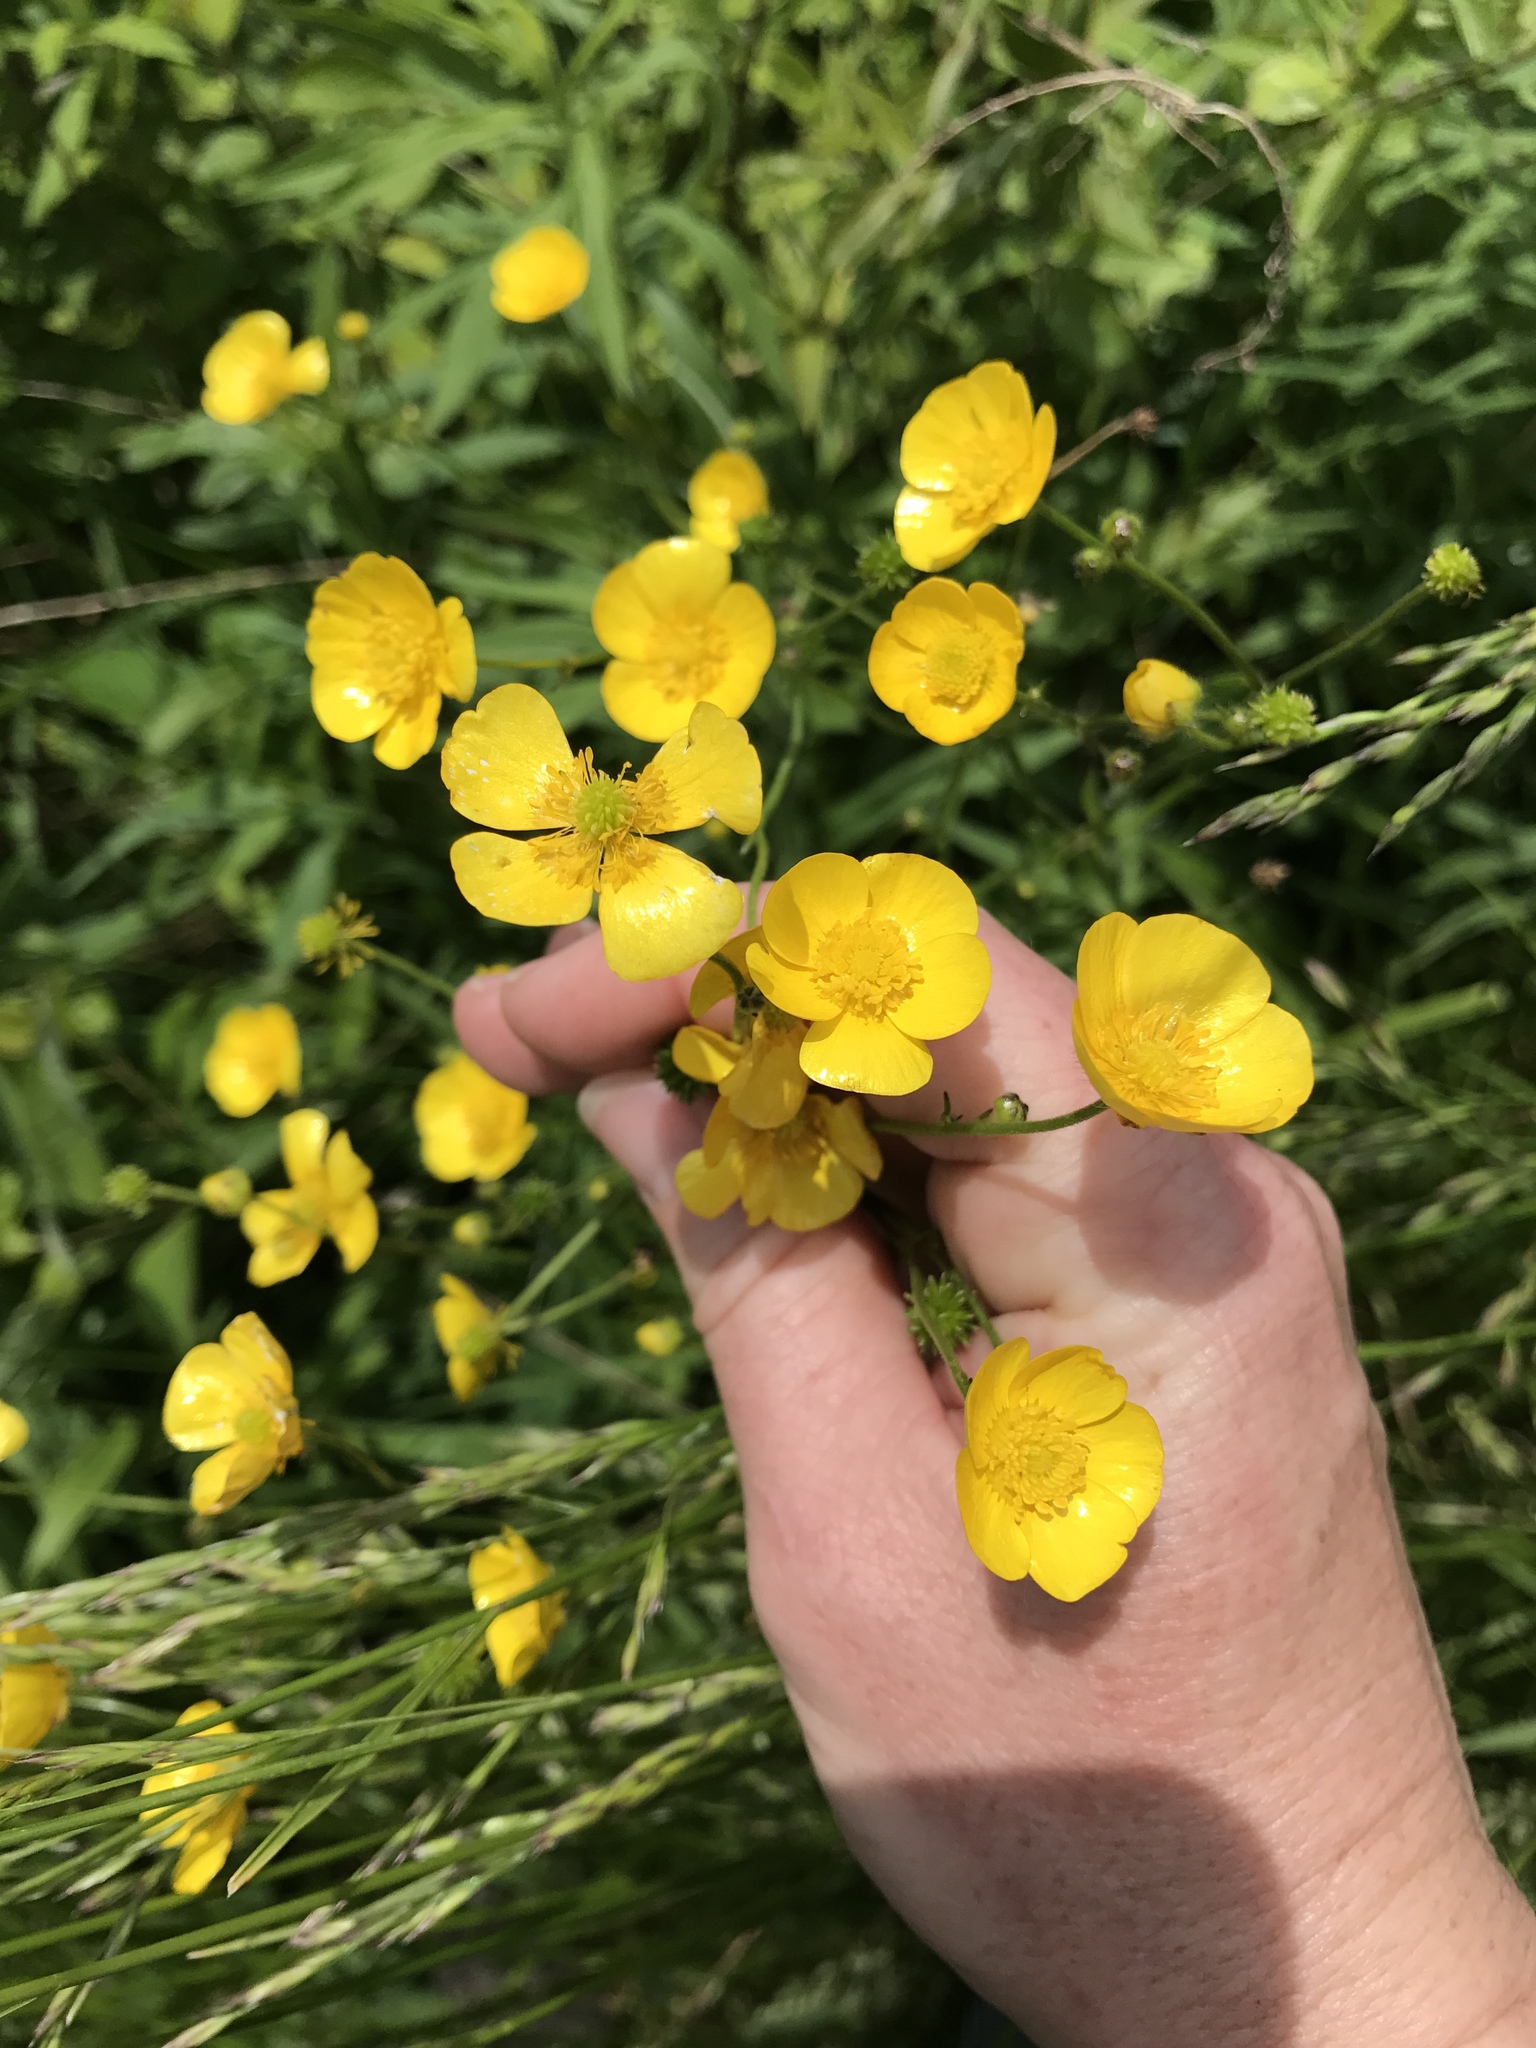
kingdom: Plantae
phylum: Tracheophyta
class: Magnoliopsida
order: Ranunculales
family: Ranunculaceae
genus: Ranunculus
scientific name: Ranunculus acris
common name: Meadow buttercup
